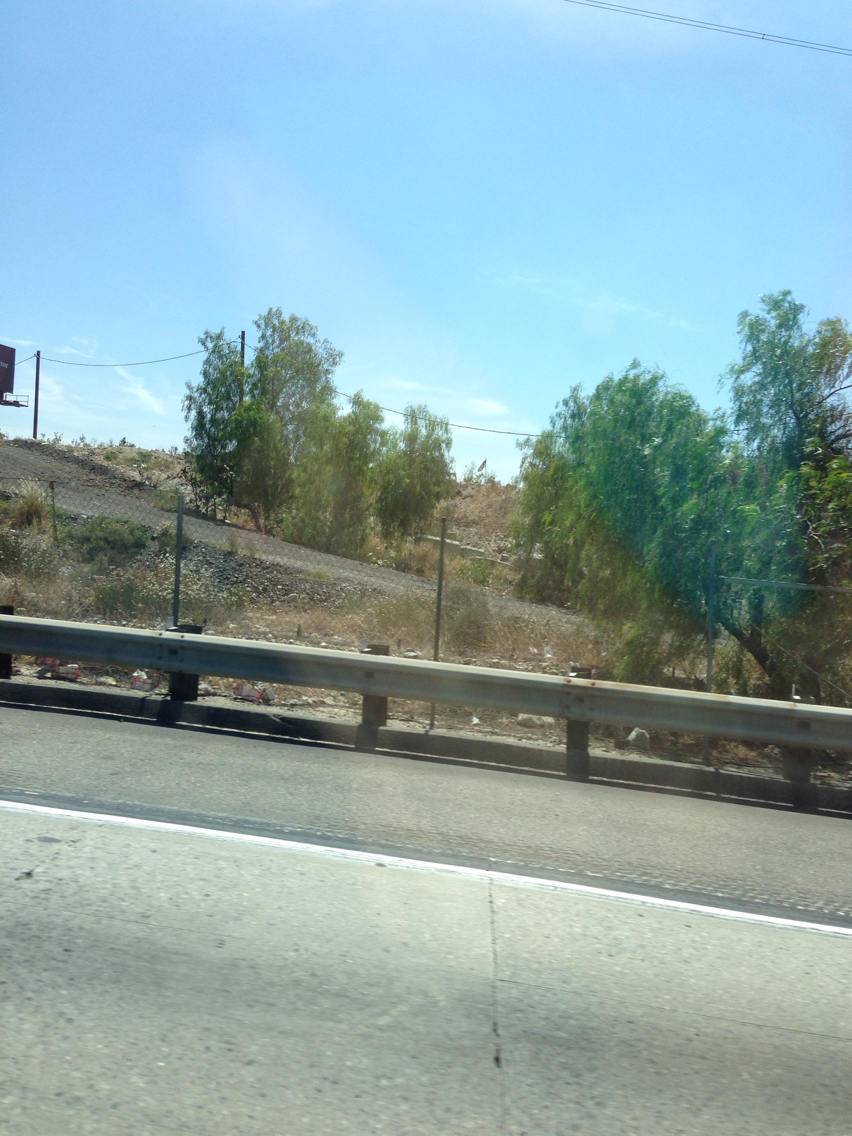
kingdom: Plantae
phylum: Tracheophyta
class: Magnoliopsida
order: Sapindales
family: Anacardiaceae
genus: Schinus
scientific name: Schinus molle
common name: Peruvian peppertree
